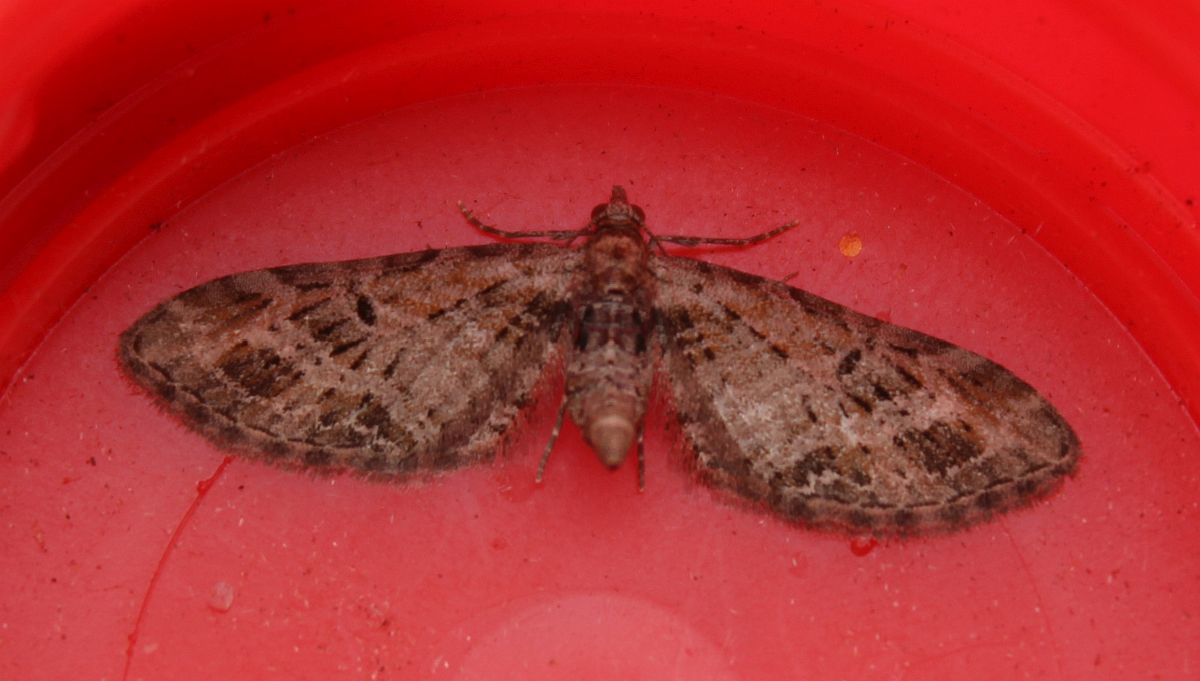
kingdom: Animalia
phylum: Arthropoda
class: Insecta
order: Lepidoptera
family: Geometridae
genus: Eupithecia
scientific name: Eupithecia exiguata
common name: Mottled pug
